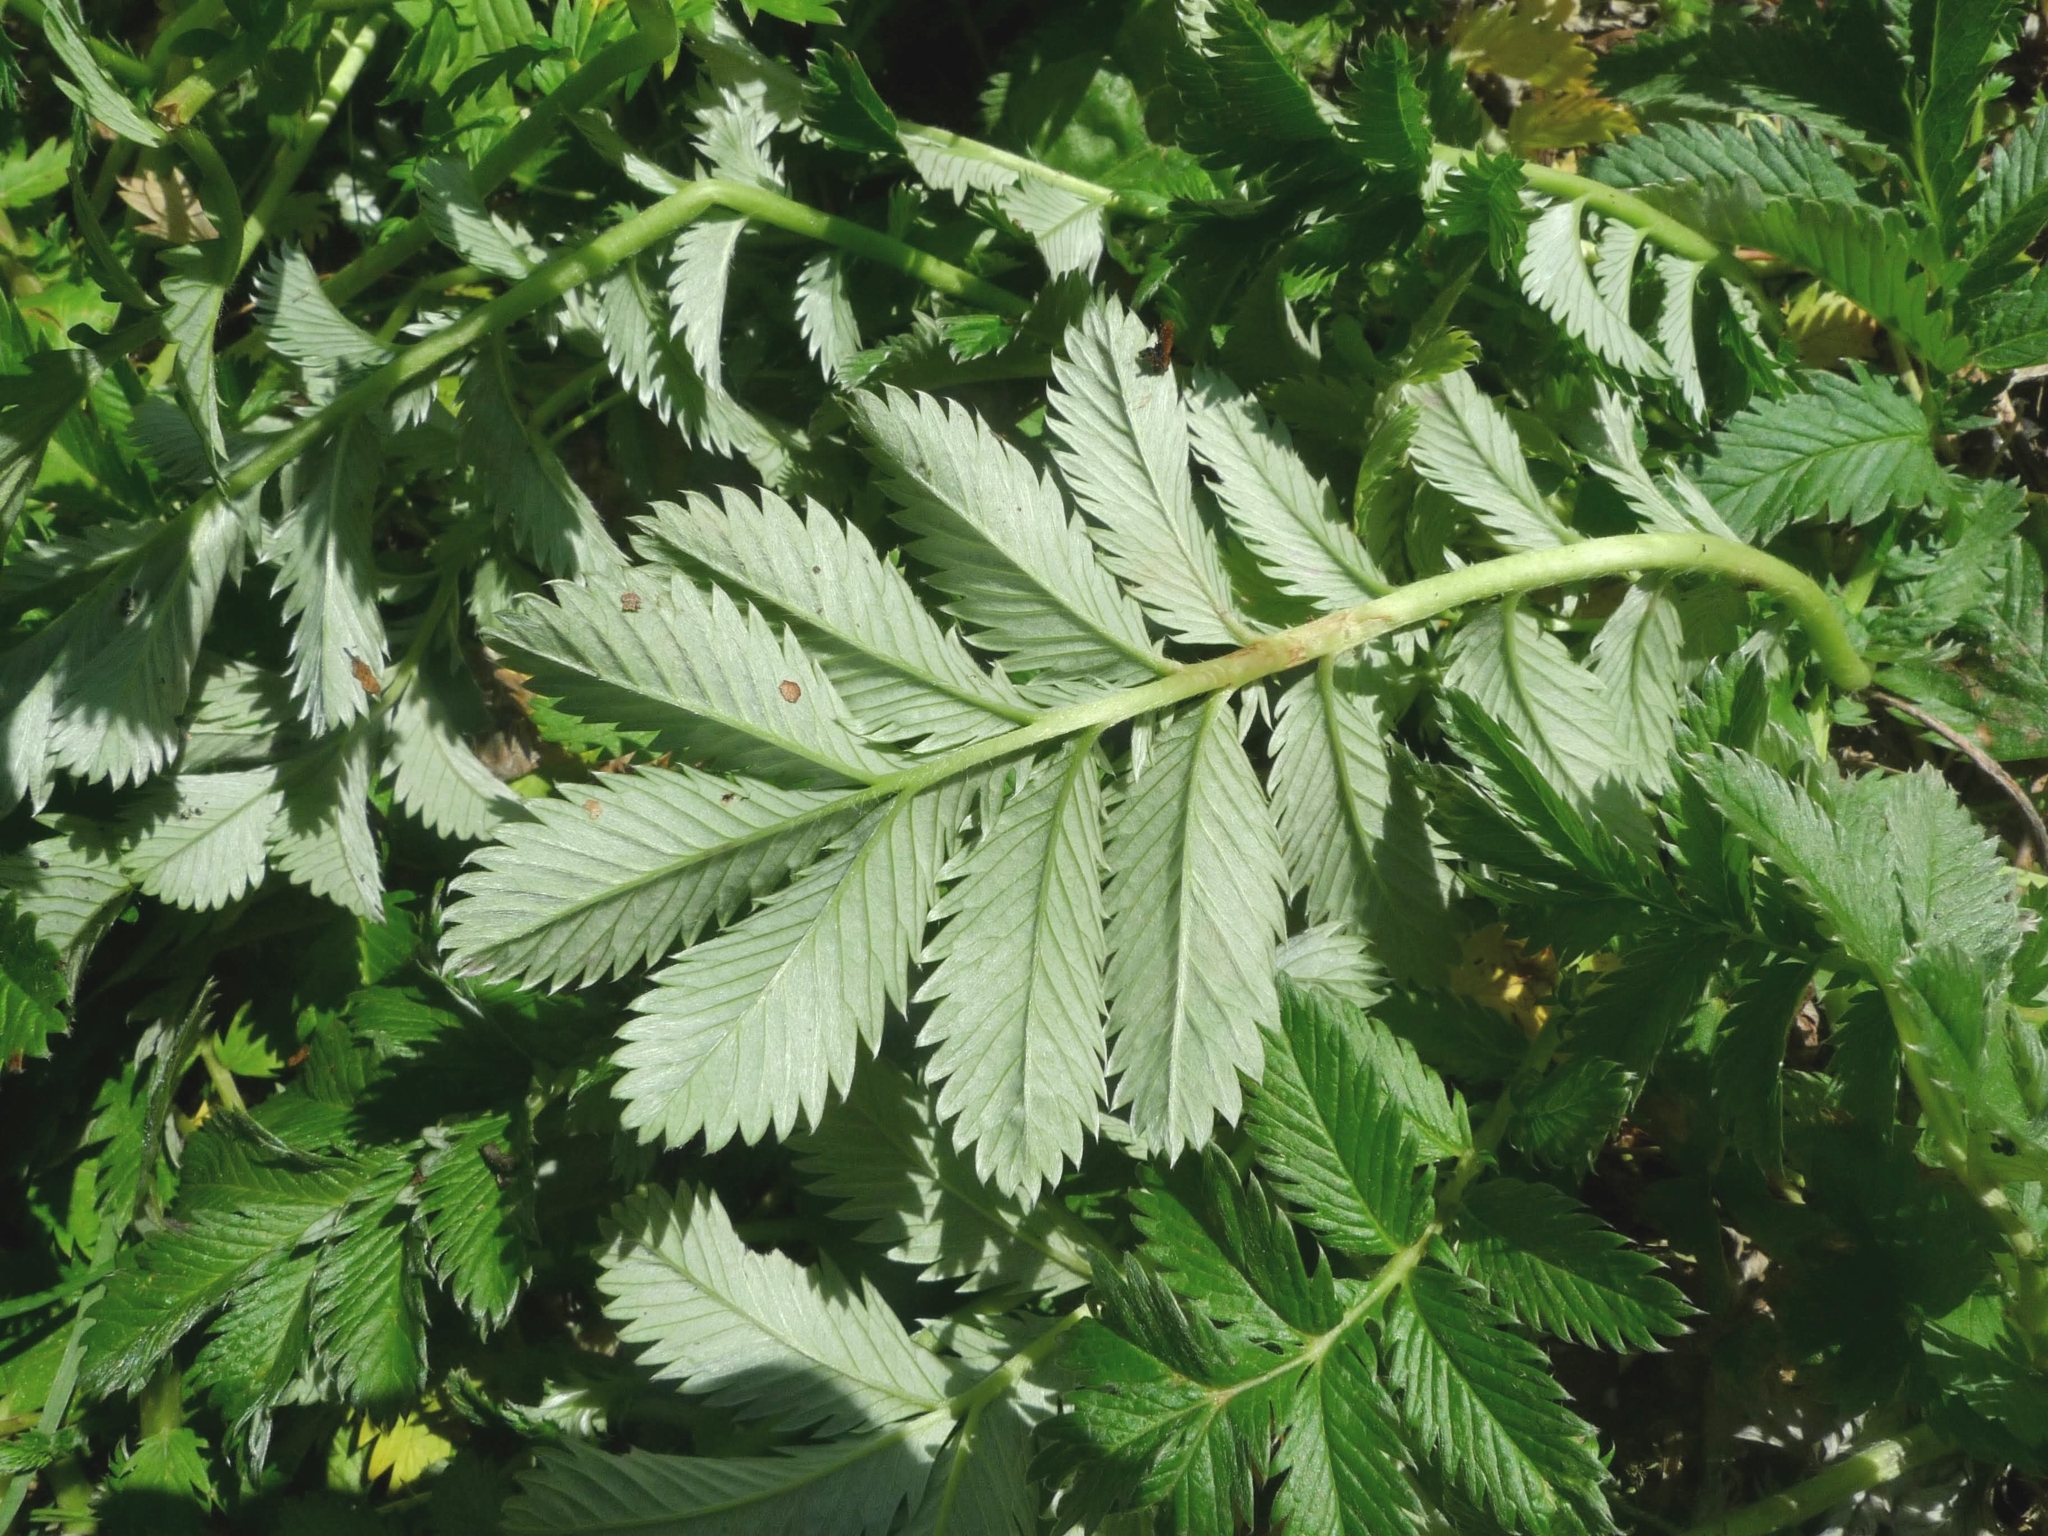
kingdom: Plantae
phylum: Tracheophyta
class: Magnoliopsida
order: Rosales
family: Rosaceae
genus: Argentina
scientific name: Argentina anserina
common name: Common silverweed
